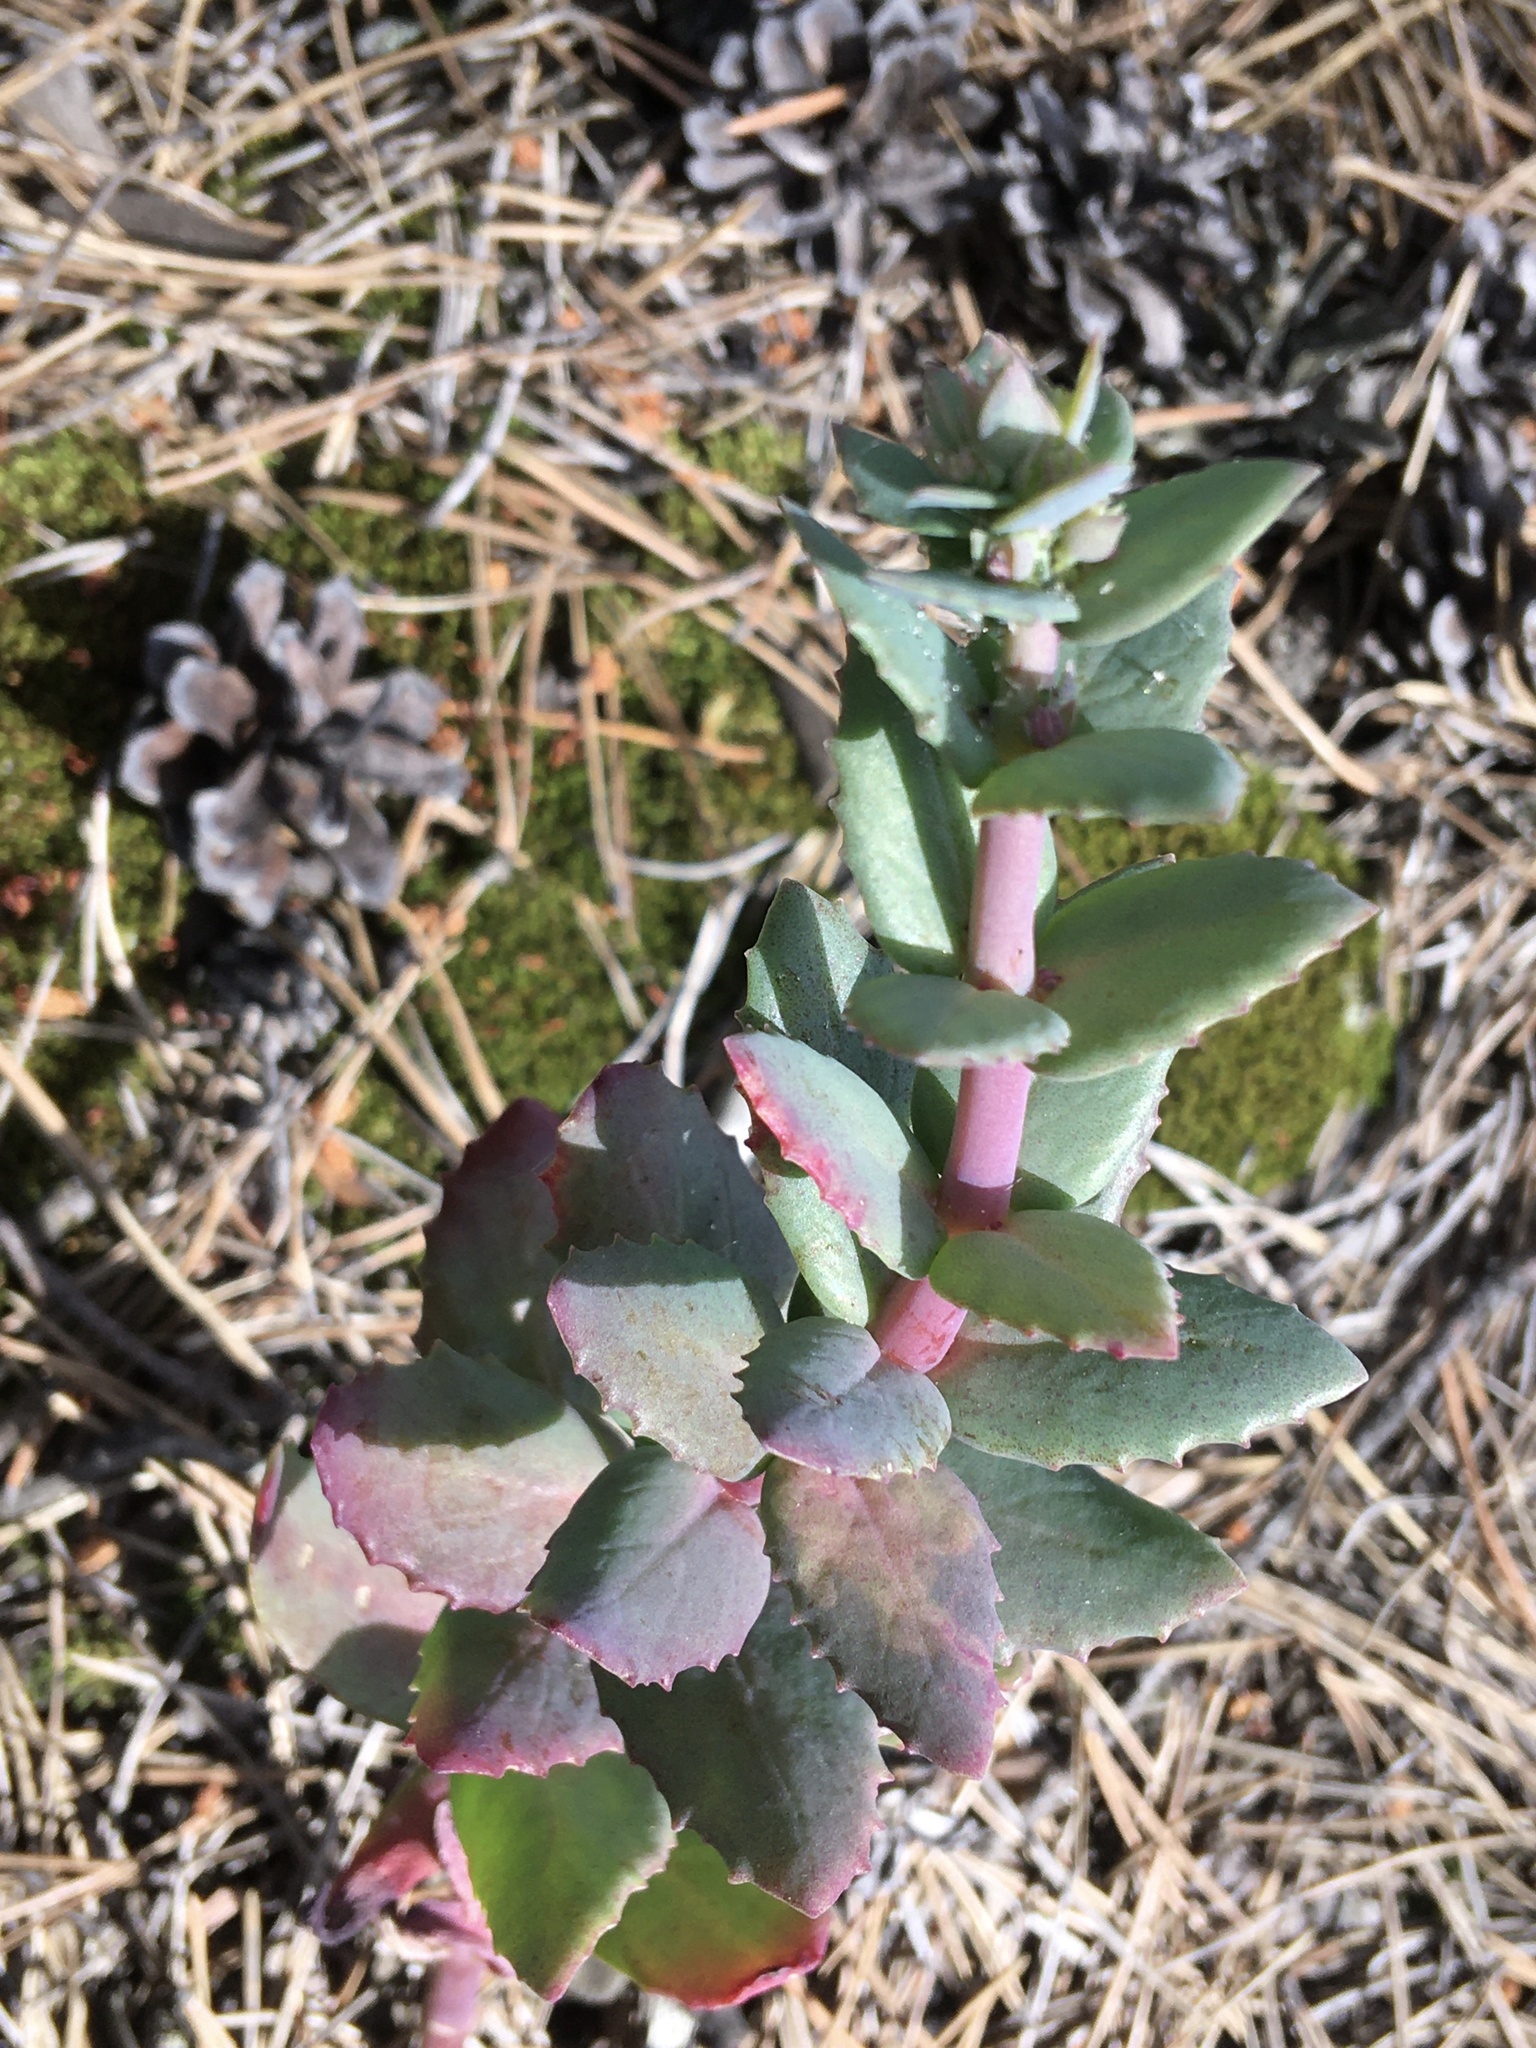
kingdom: Plantae
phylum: Tracheophyta
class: Magnoliopsida
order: Saxifragales
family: Crassulaceae
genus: Hylotelephium
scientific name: Hylotelephium maximum
